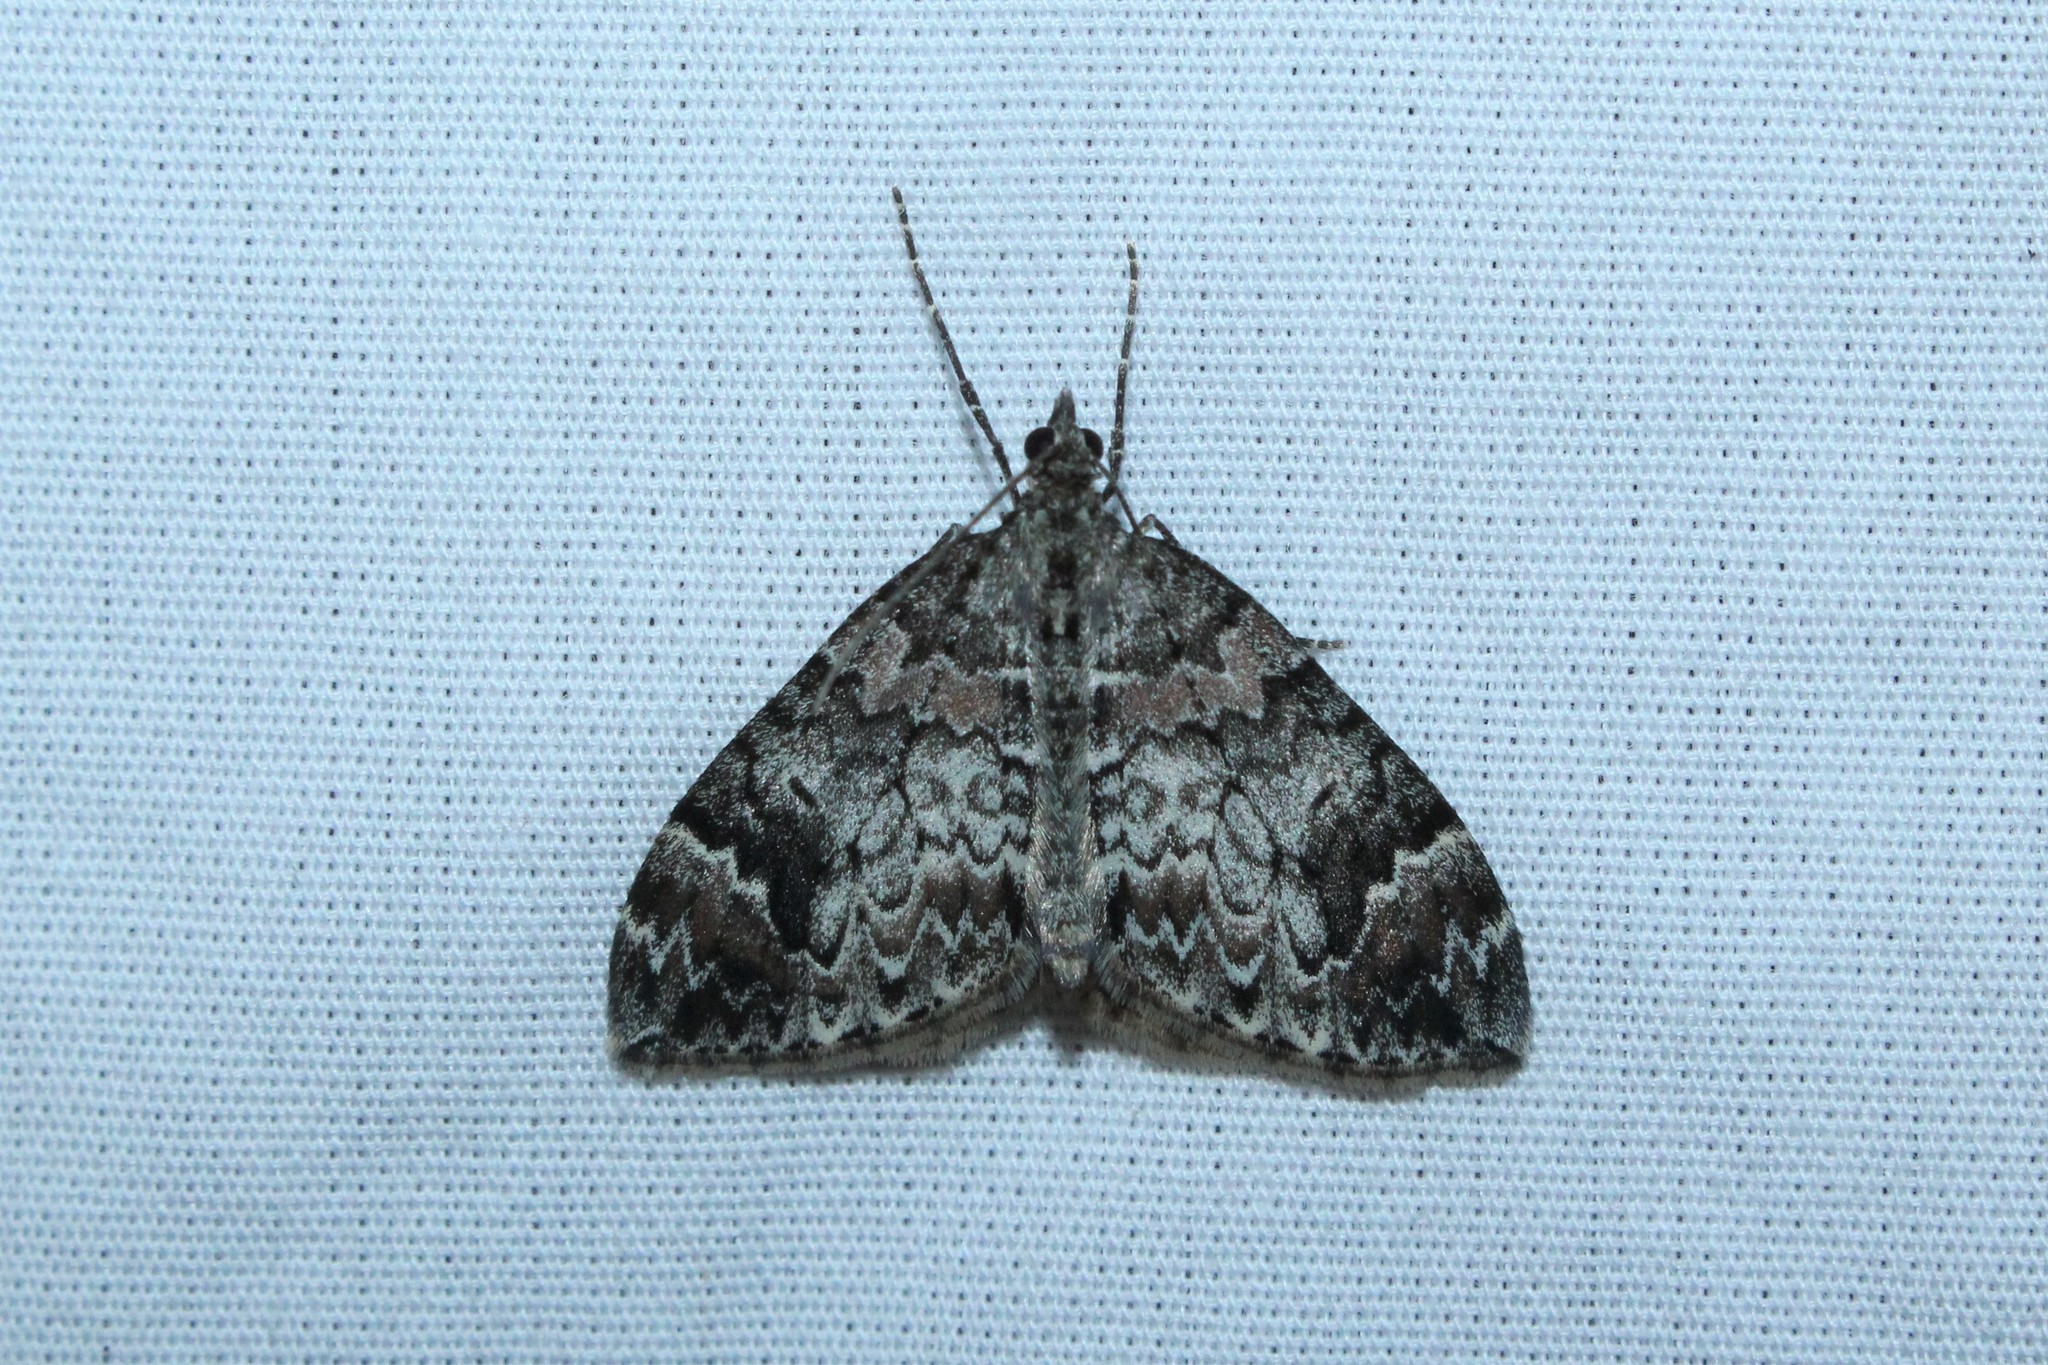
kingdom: Animalia
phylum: Arthropoda
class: Insecta
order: Lepidoptera
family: Geometridae
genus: Dysstroma
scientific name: Dysstroma citrata
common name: Dark marbled carpet
